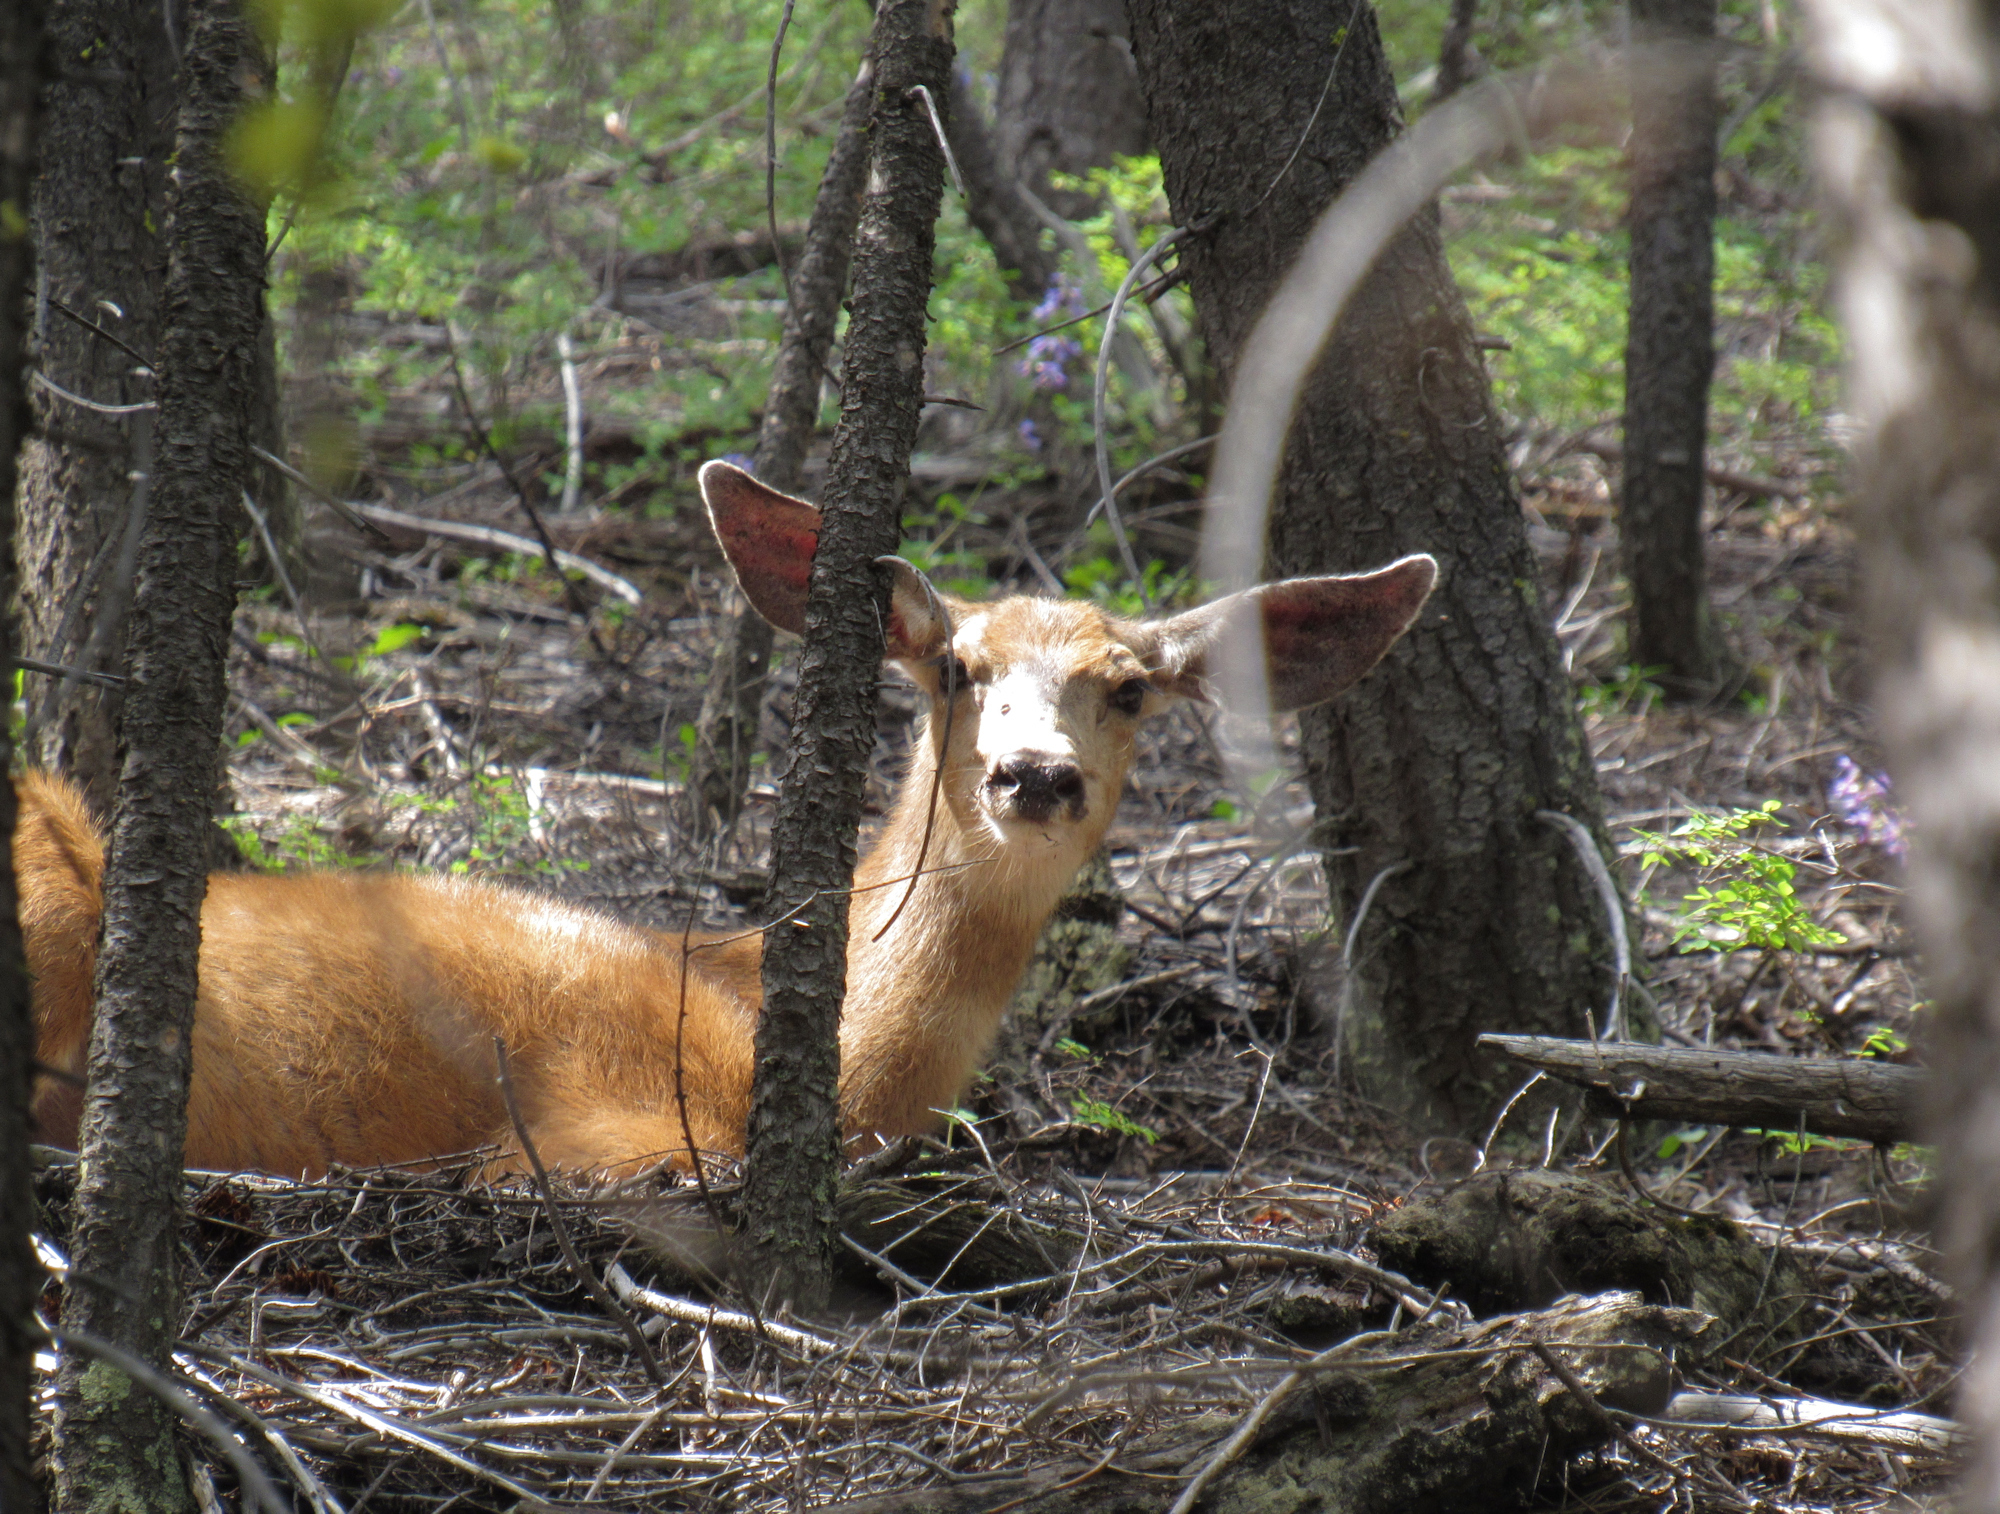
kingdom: Animalia
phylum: Chordata
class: Mammalia
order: Artiodactyla
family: Cervidae
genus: Odocoileus
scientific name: Odocoileus hemionus
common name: Mule deer
